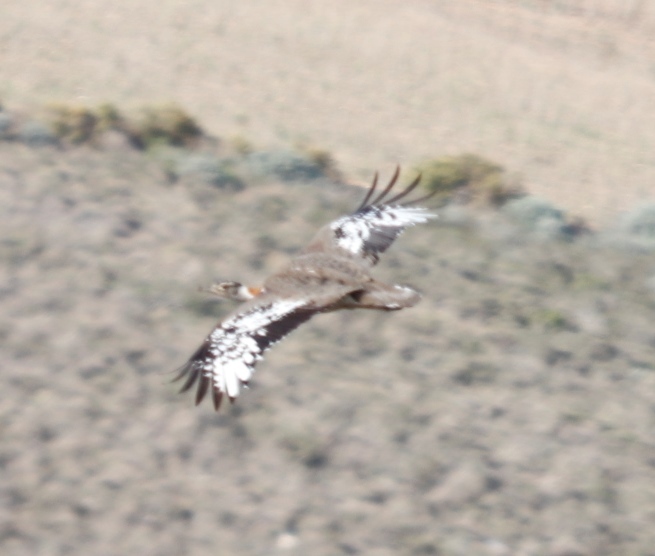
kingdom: Animalia
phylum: Chordata
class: Aves
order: Otidiformes
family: Otididae
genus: Neotis
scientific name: Neotis denhami
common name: Denham's bustard
